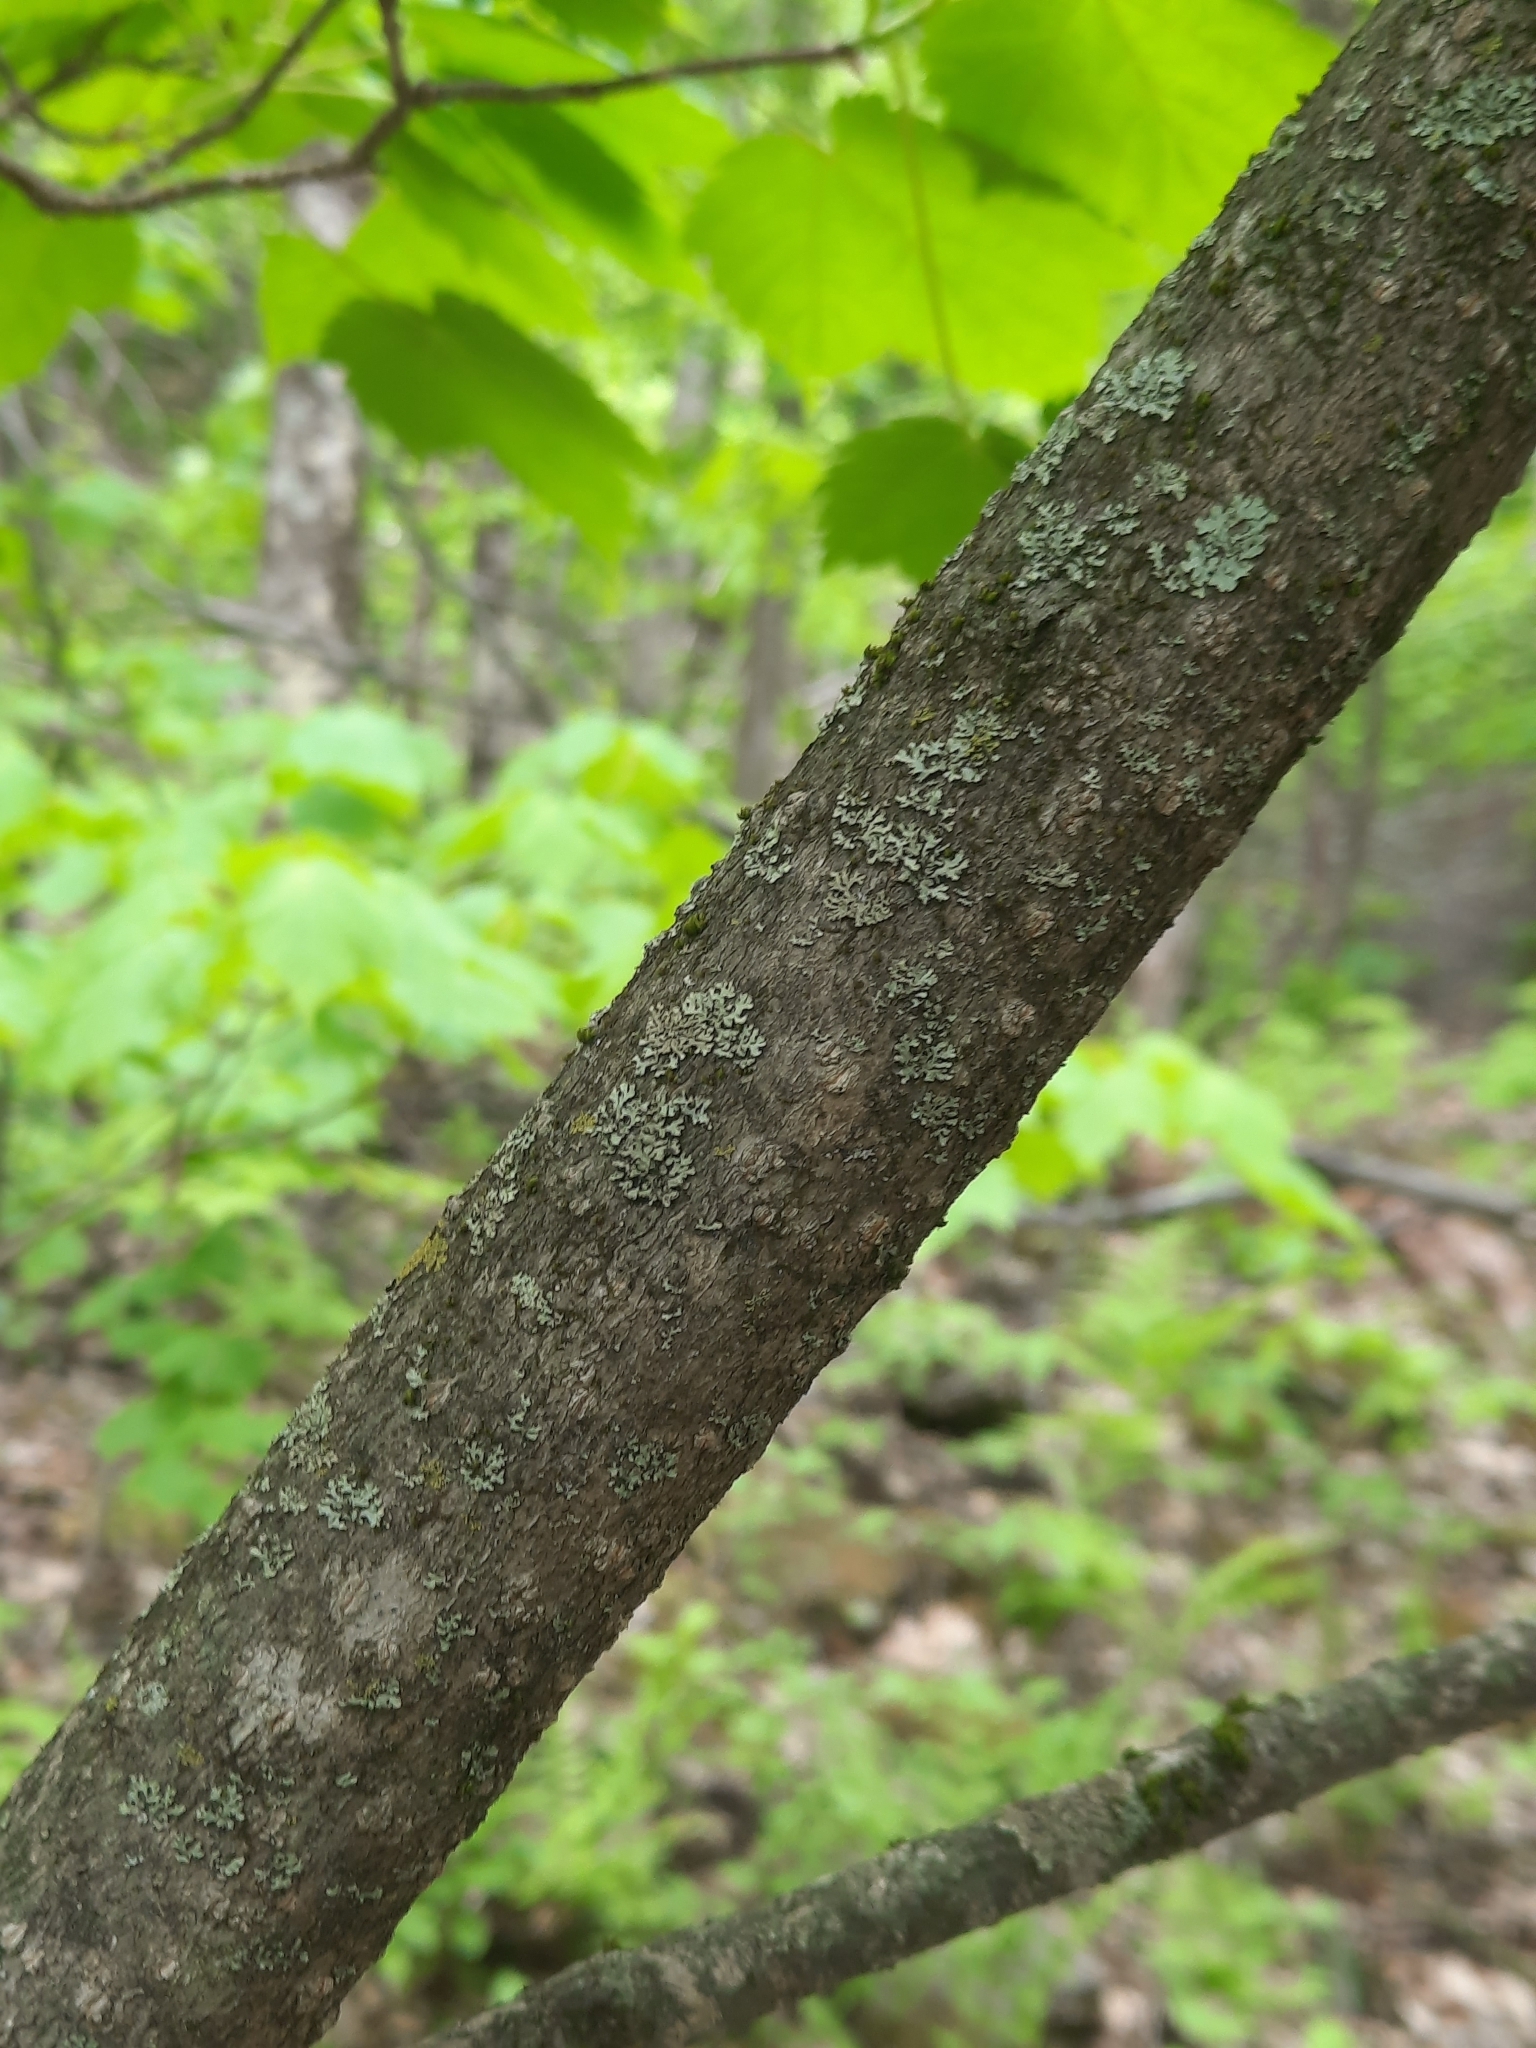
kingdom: Plantae
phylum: Tracheophyta
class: Magnoliopsida
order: Sapindales
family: Sapindaceae
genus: Acer
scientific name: Acer spicatum
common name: Mountain maple
